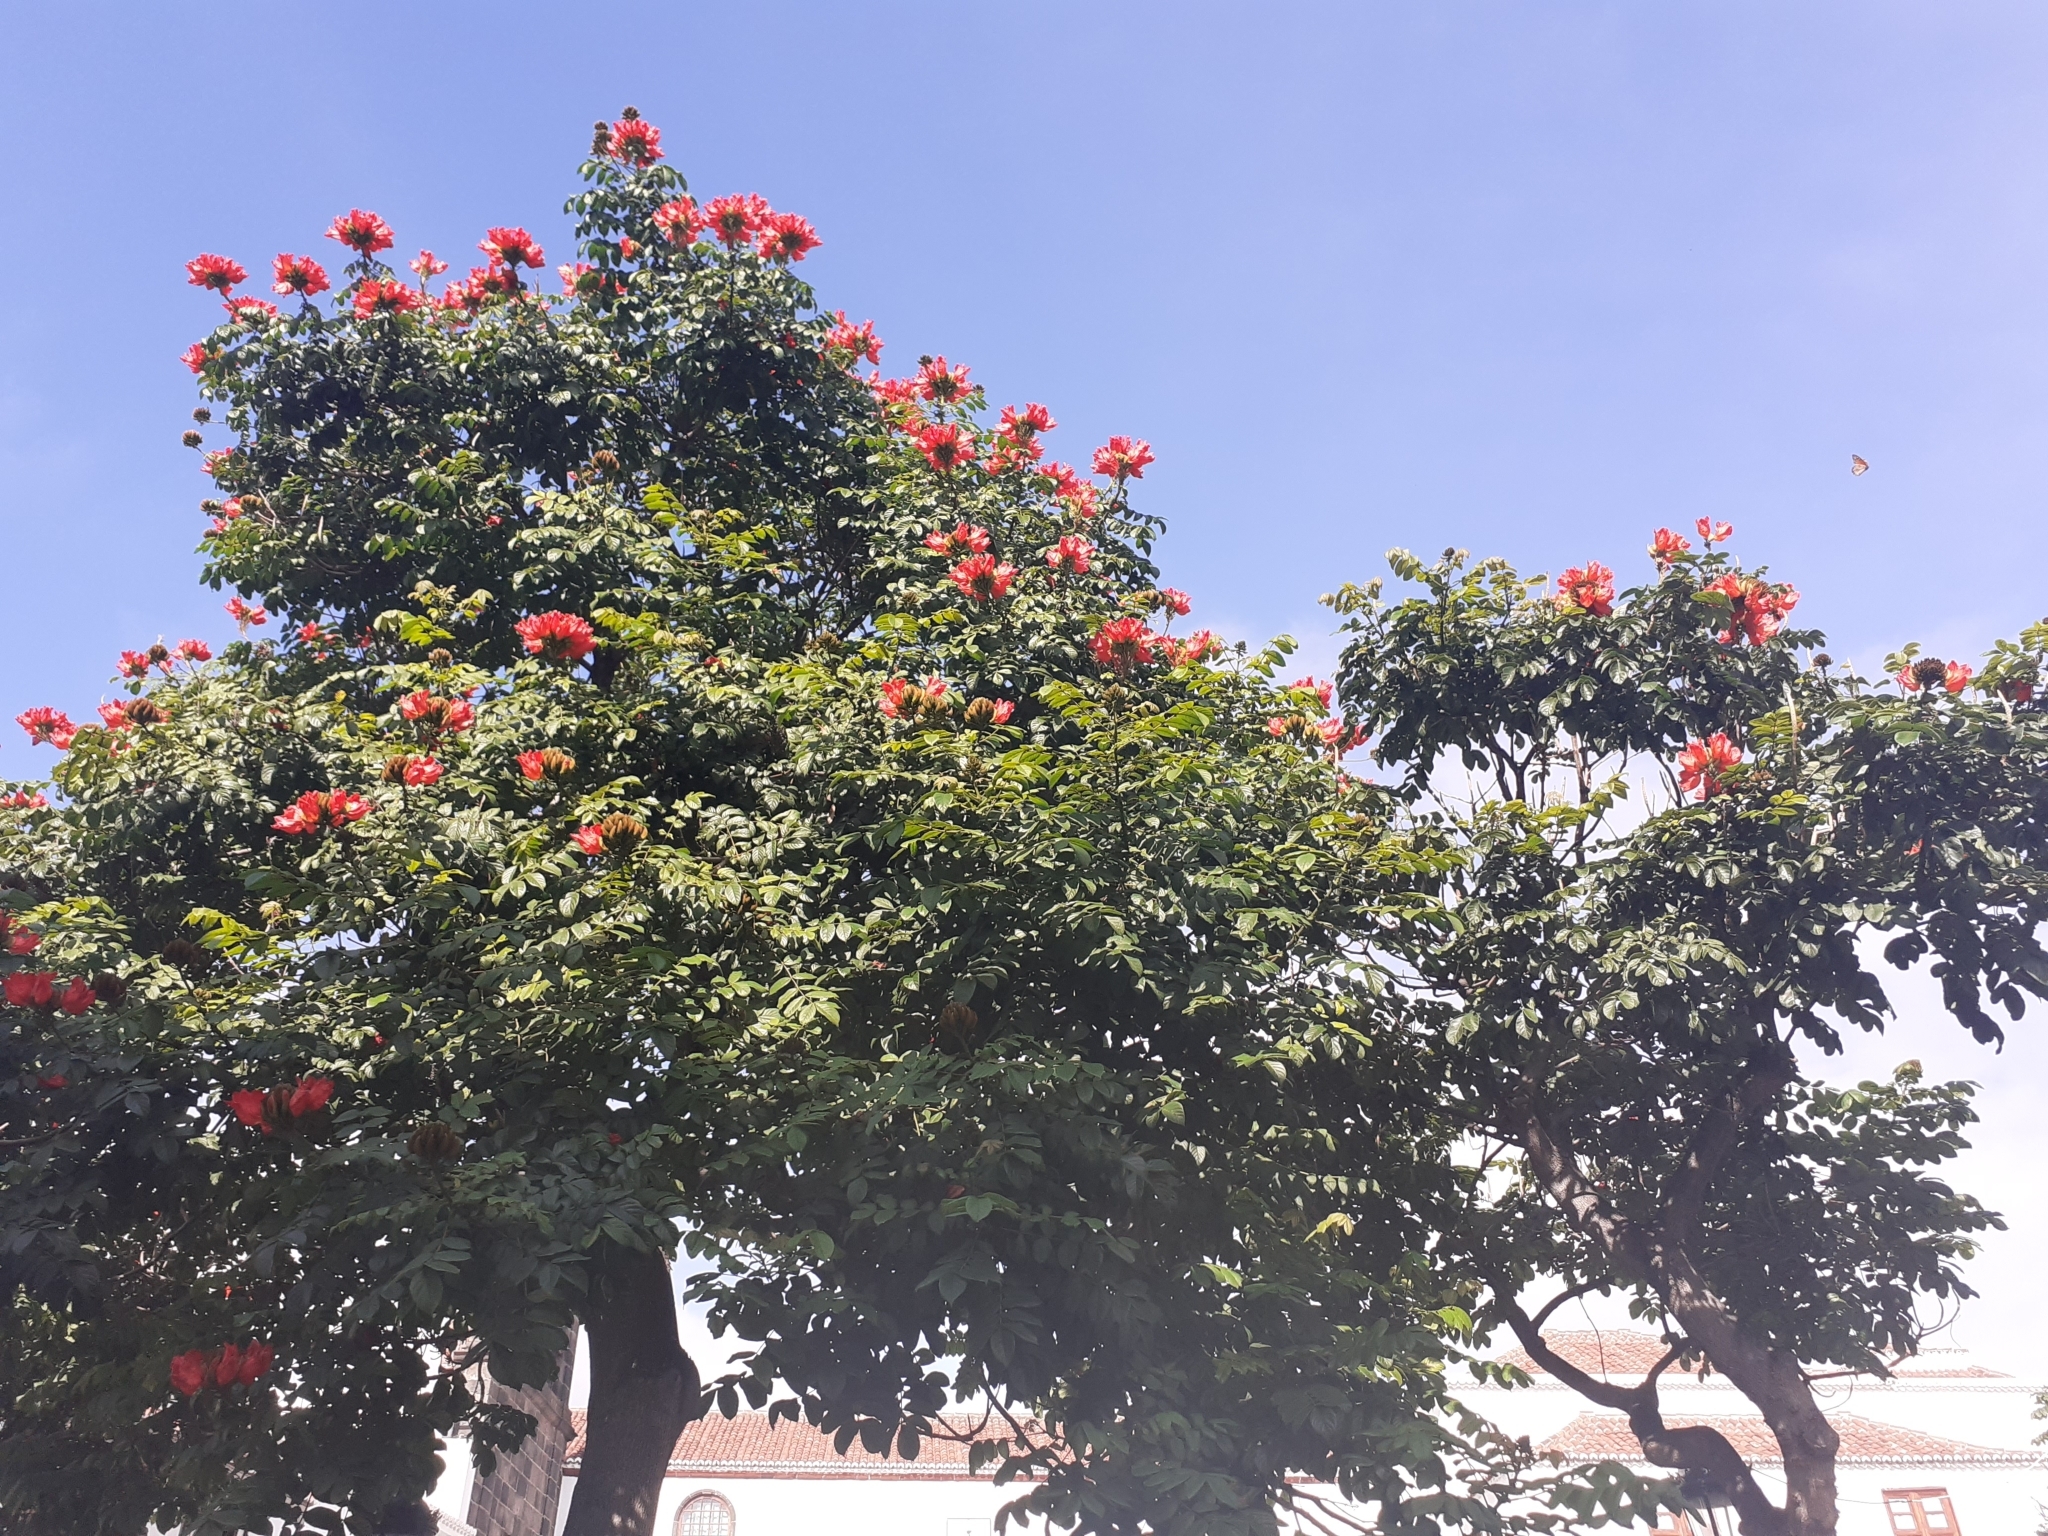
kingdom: Animalia
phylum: Arthropoda
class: Insecta
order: Lepidoptera
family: Nymphalidae
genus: Danaus
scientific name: Danaus plexippus
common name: Monarch
